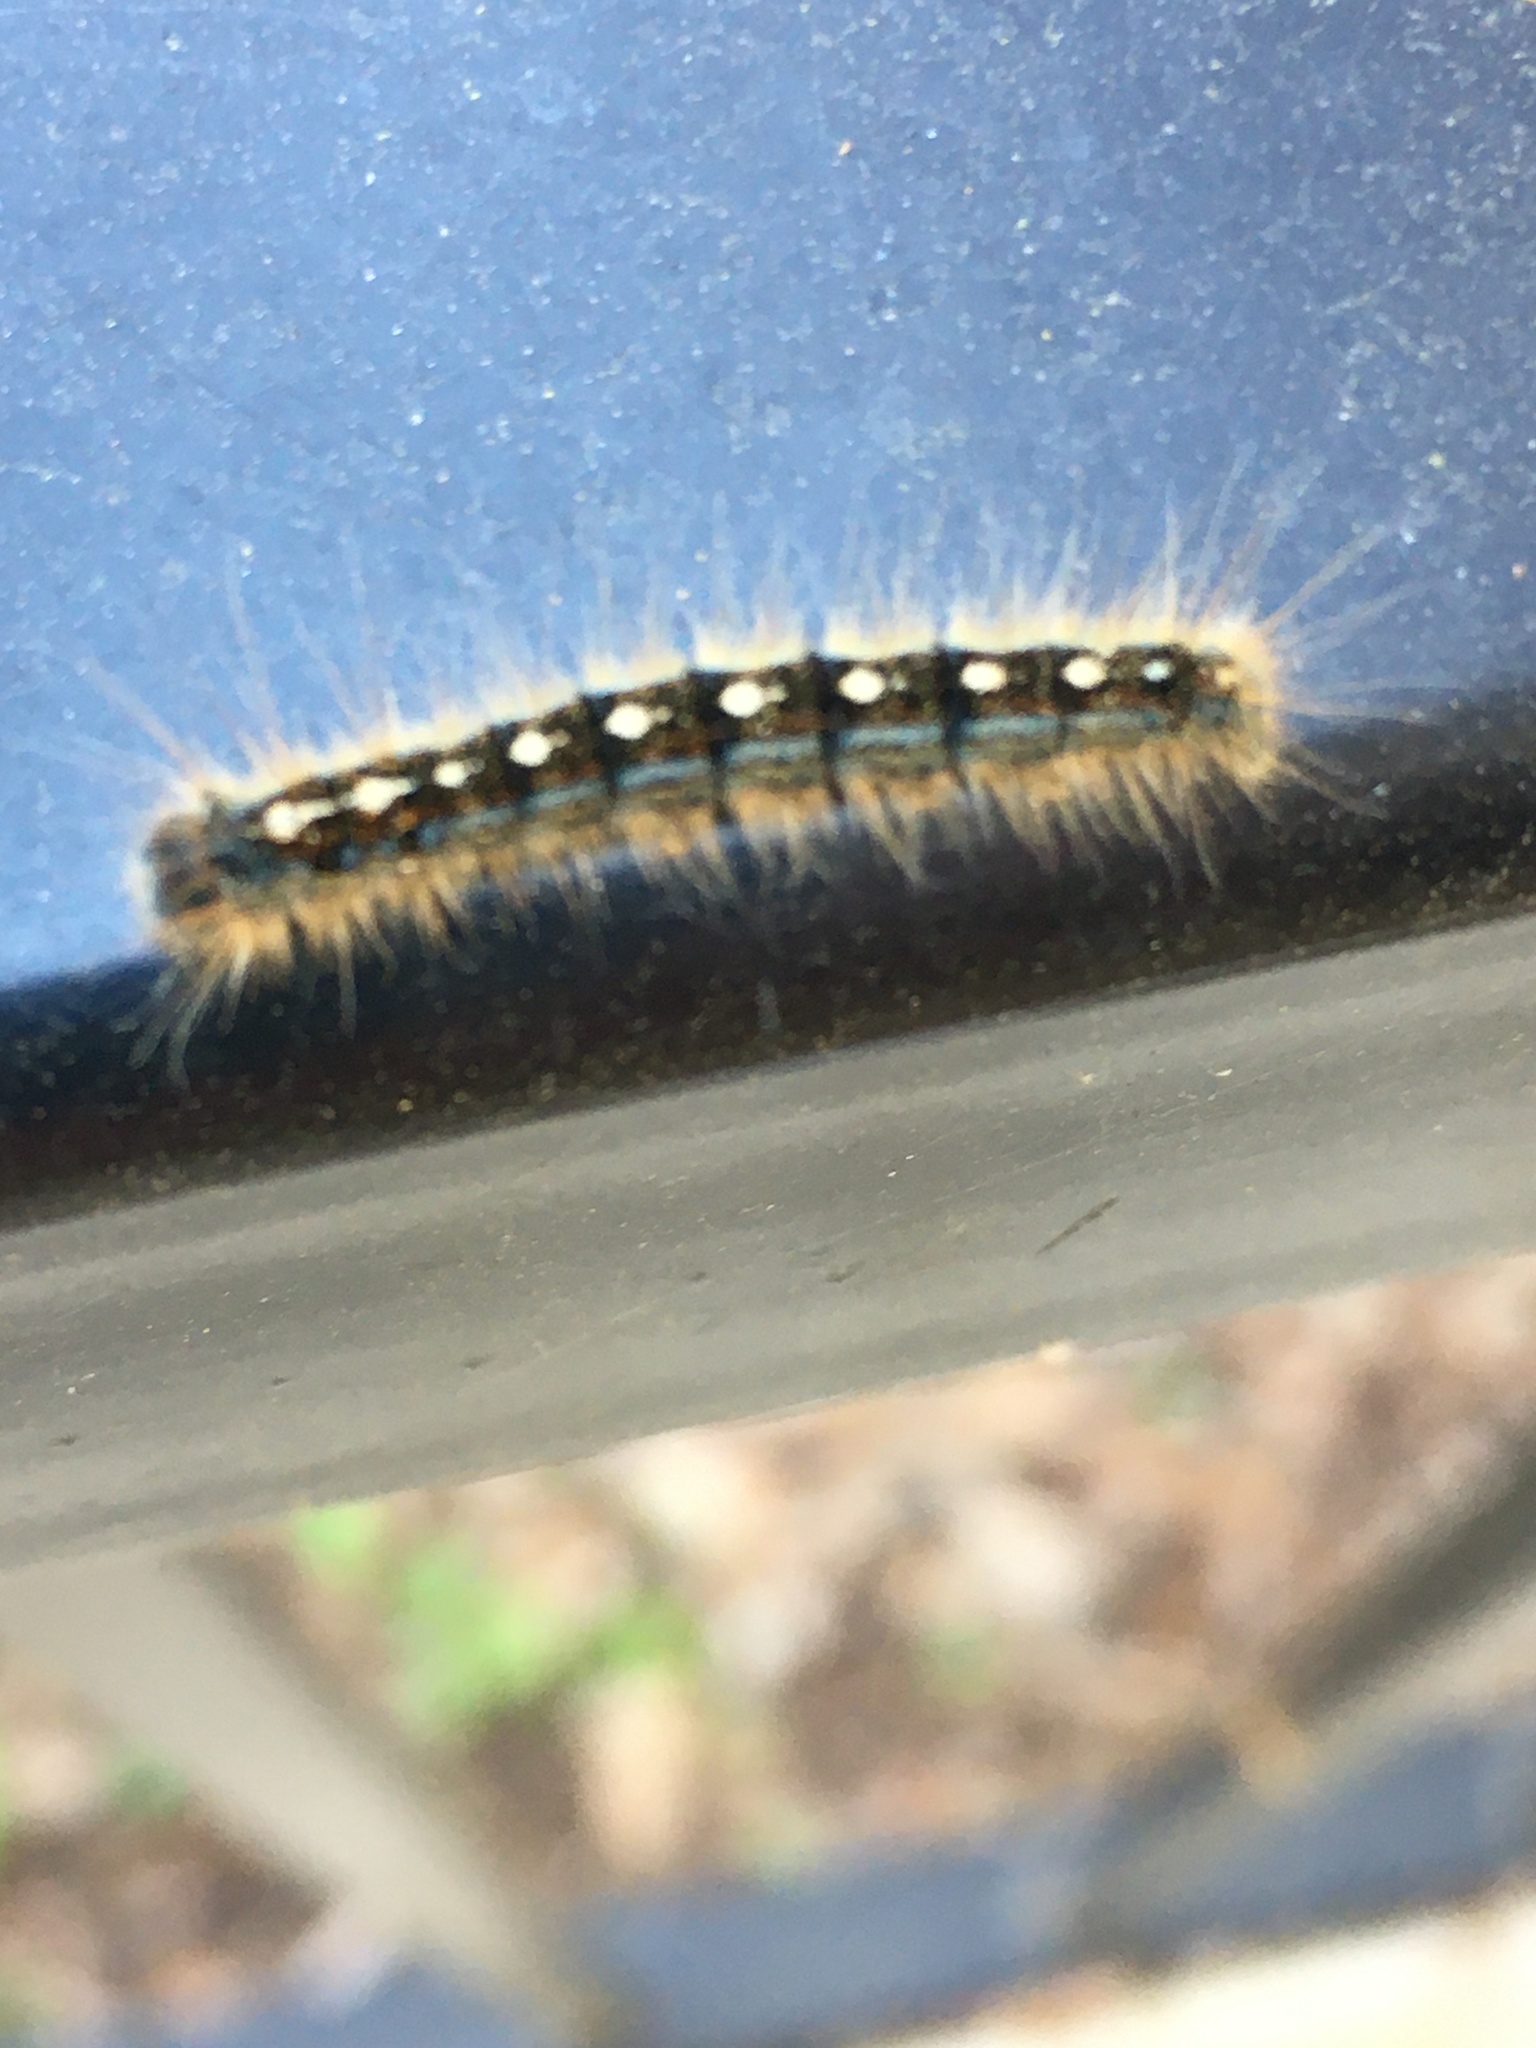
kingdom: Animalia
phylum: Arthropoda
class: Insecta
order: Lepidoptera
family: Lasiocampidae
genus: Malacosoma
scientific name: Malacosoma disstria
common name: Forest tent caterpillar
